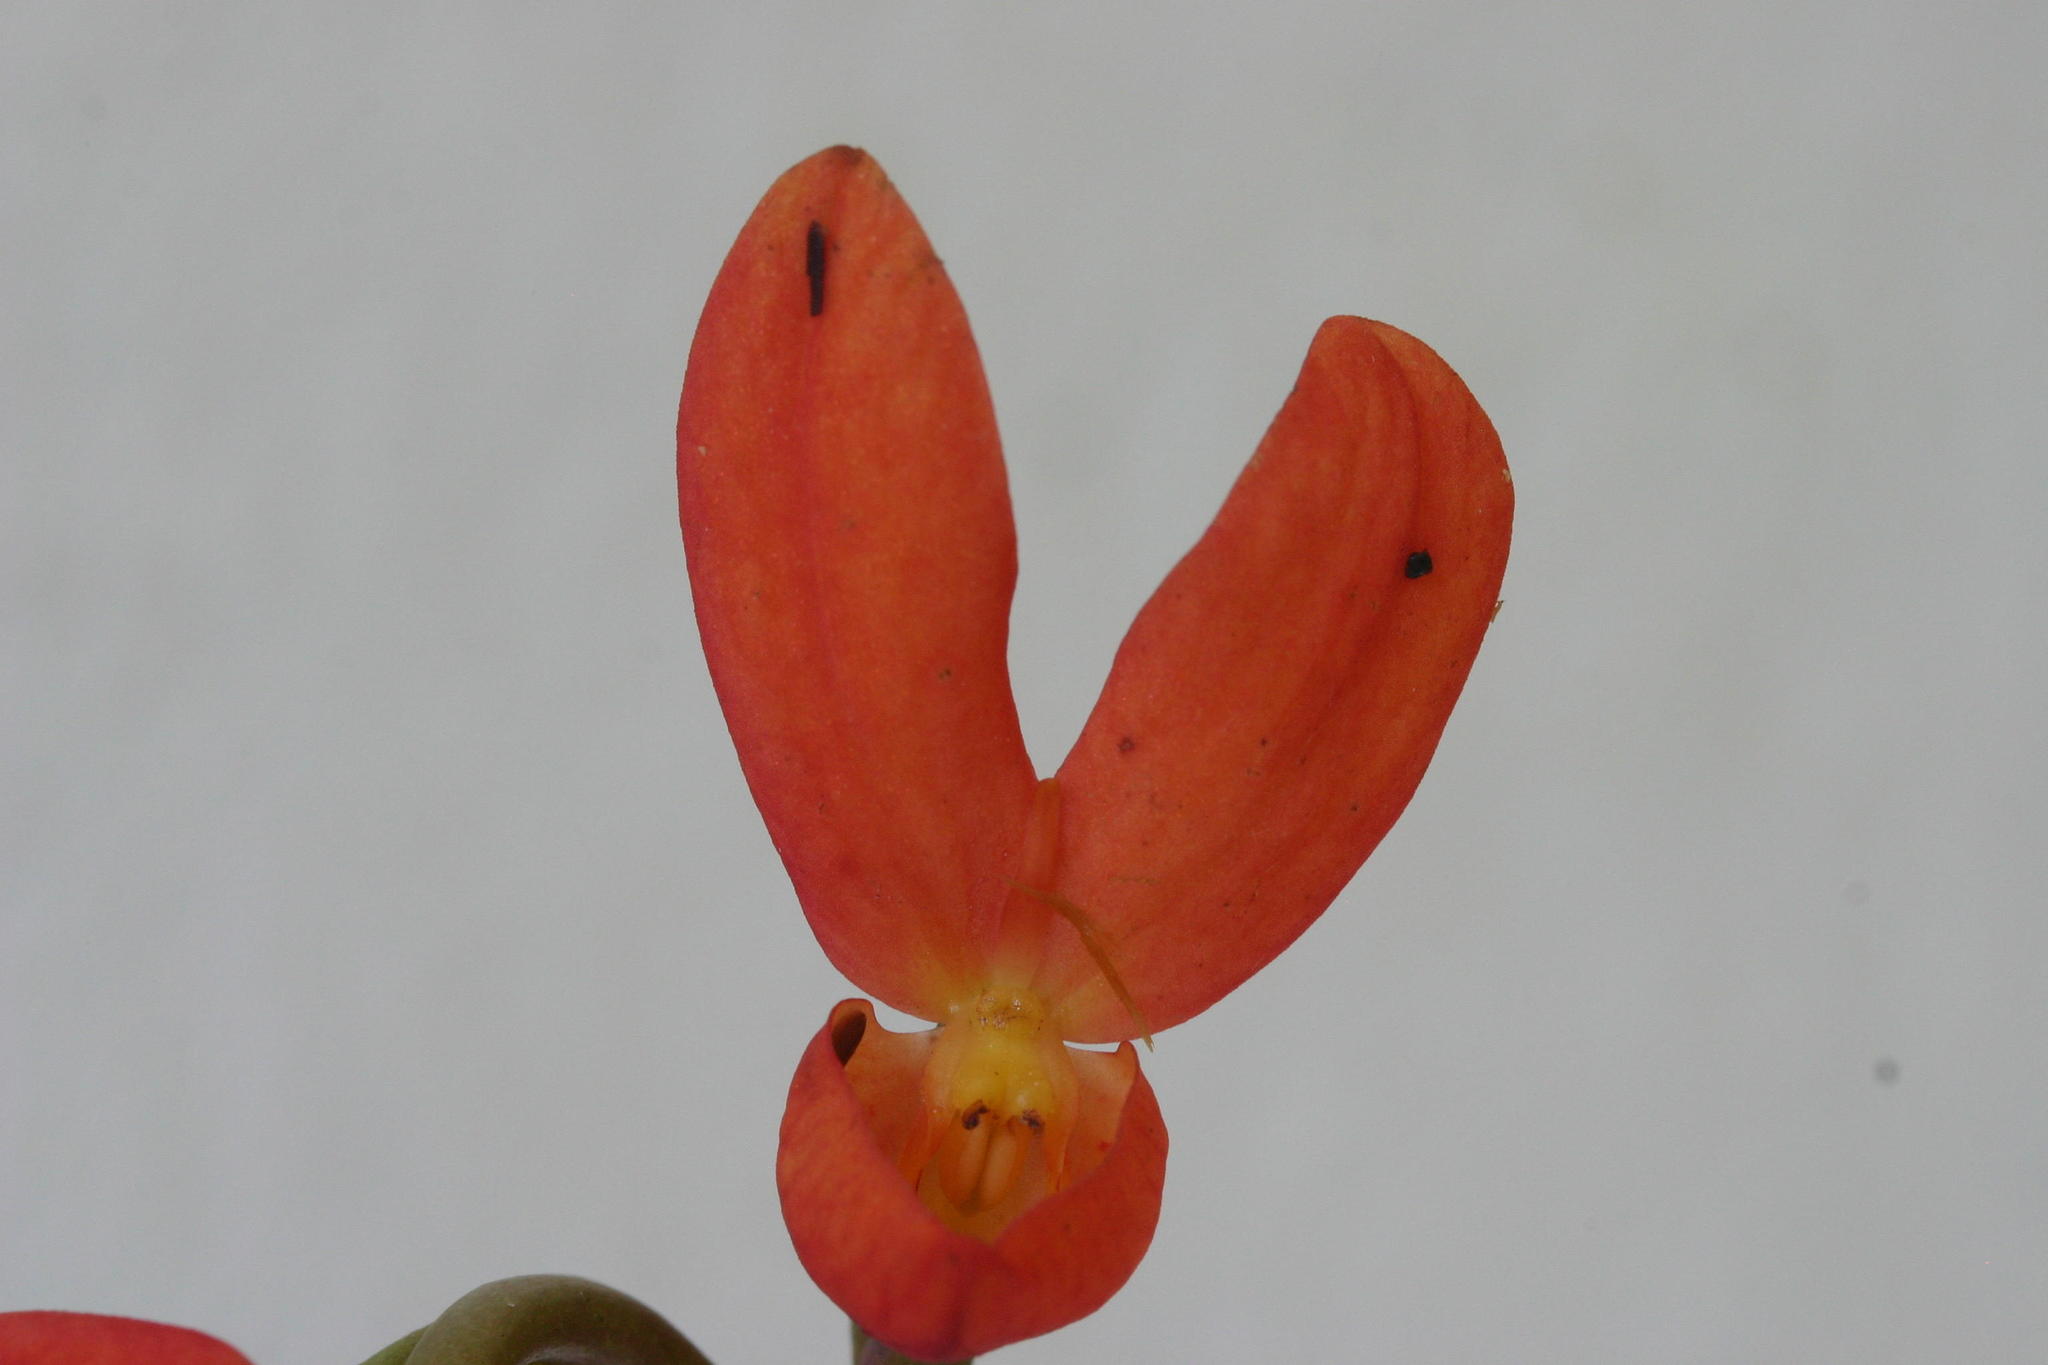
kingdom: Plantae
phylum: Tracheophyta
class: Liliopsida
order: Asparagales
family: Orchidaceae
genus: Disa
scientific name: Disa cardinalis
